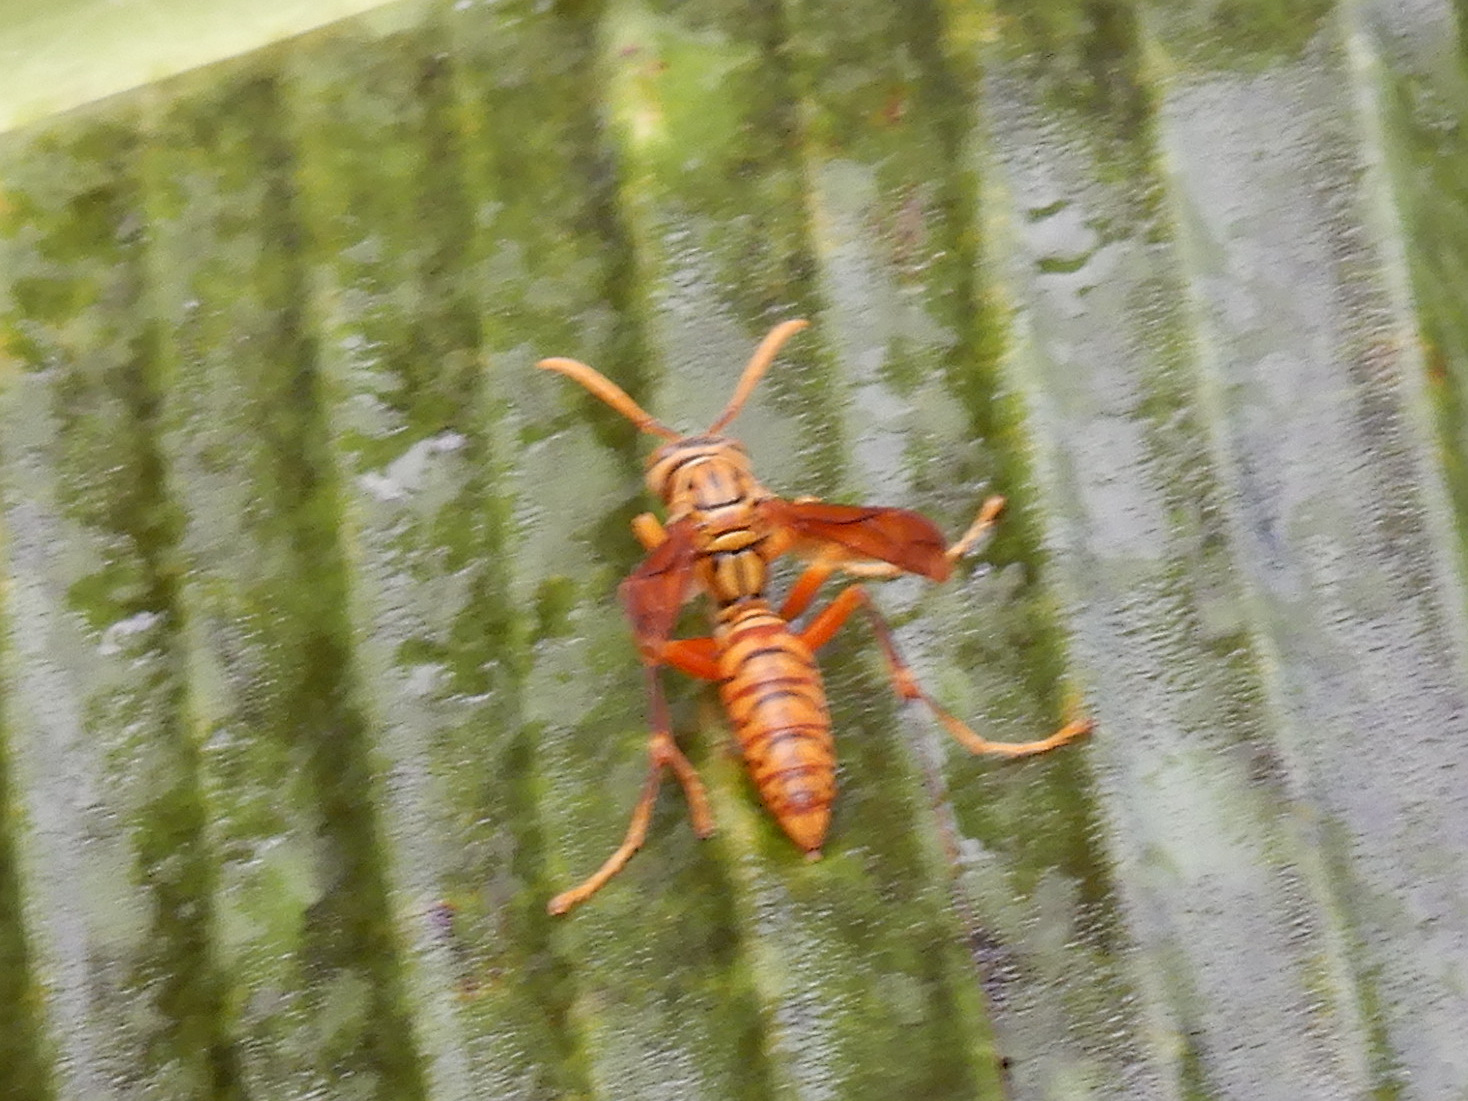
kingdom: Animalia
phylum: Arthropoda
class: Insecta
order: Hymenoptera
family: Eumenidae
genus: Polistes
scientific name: Polistes olivaceus
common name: Paper wasp
